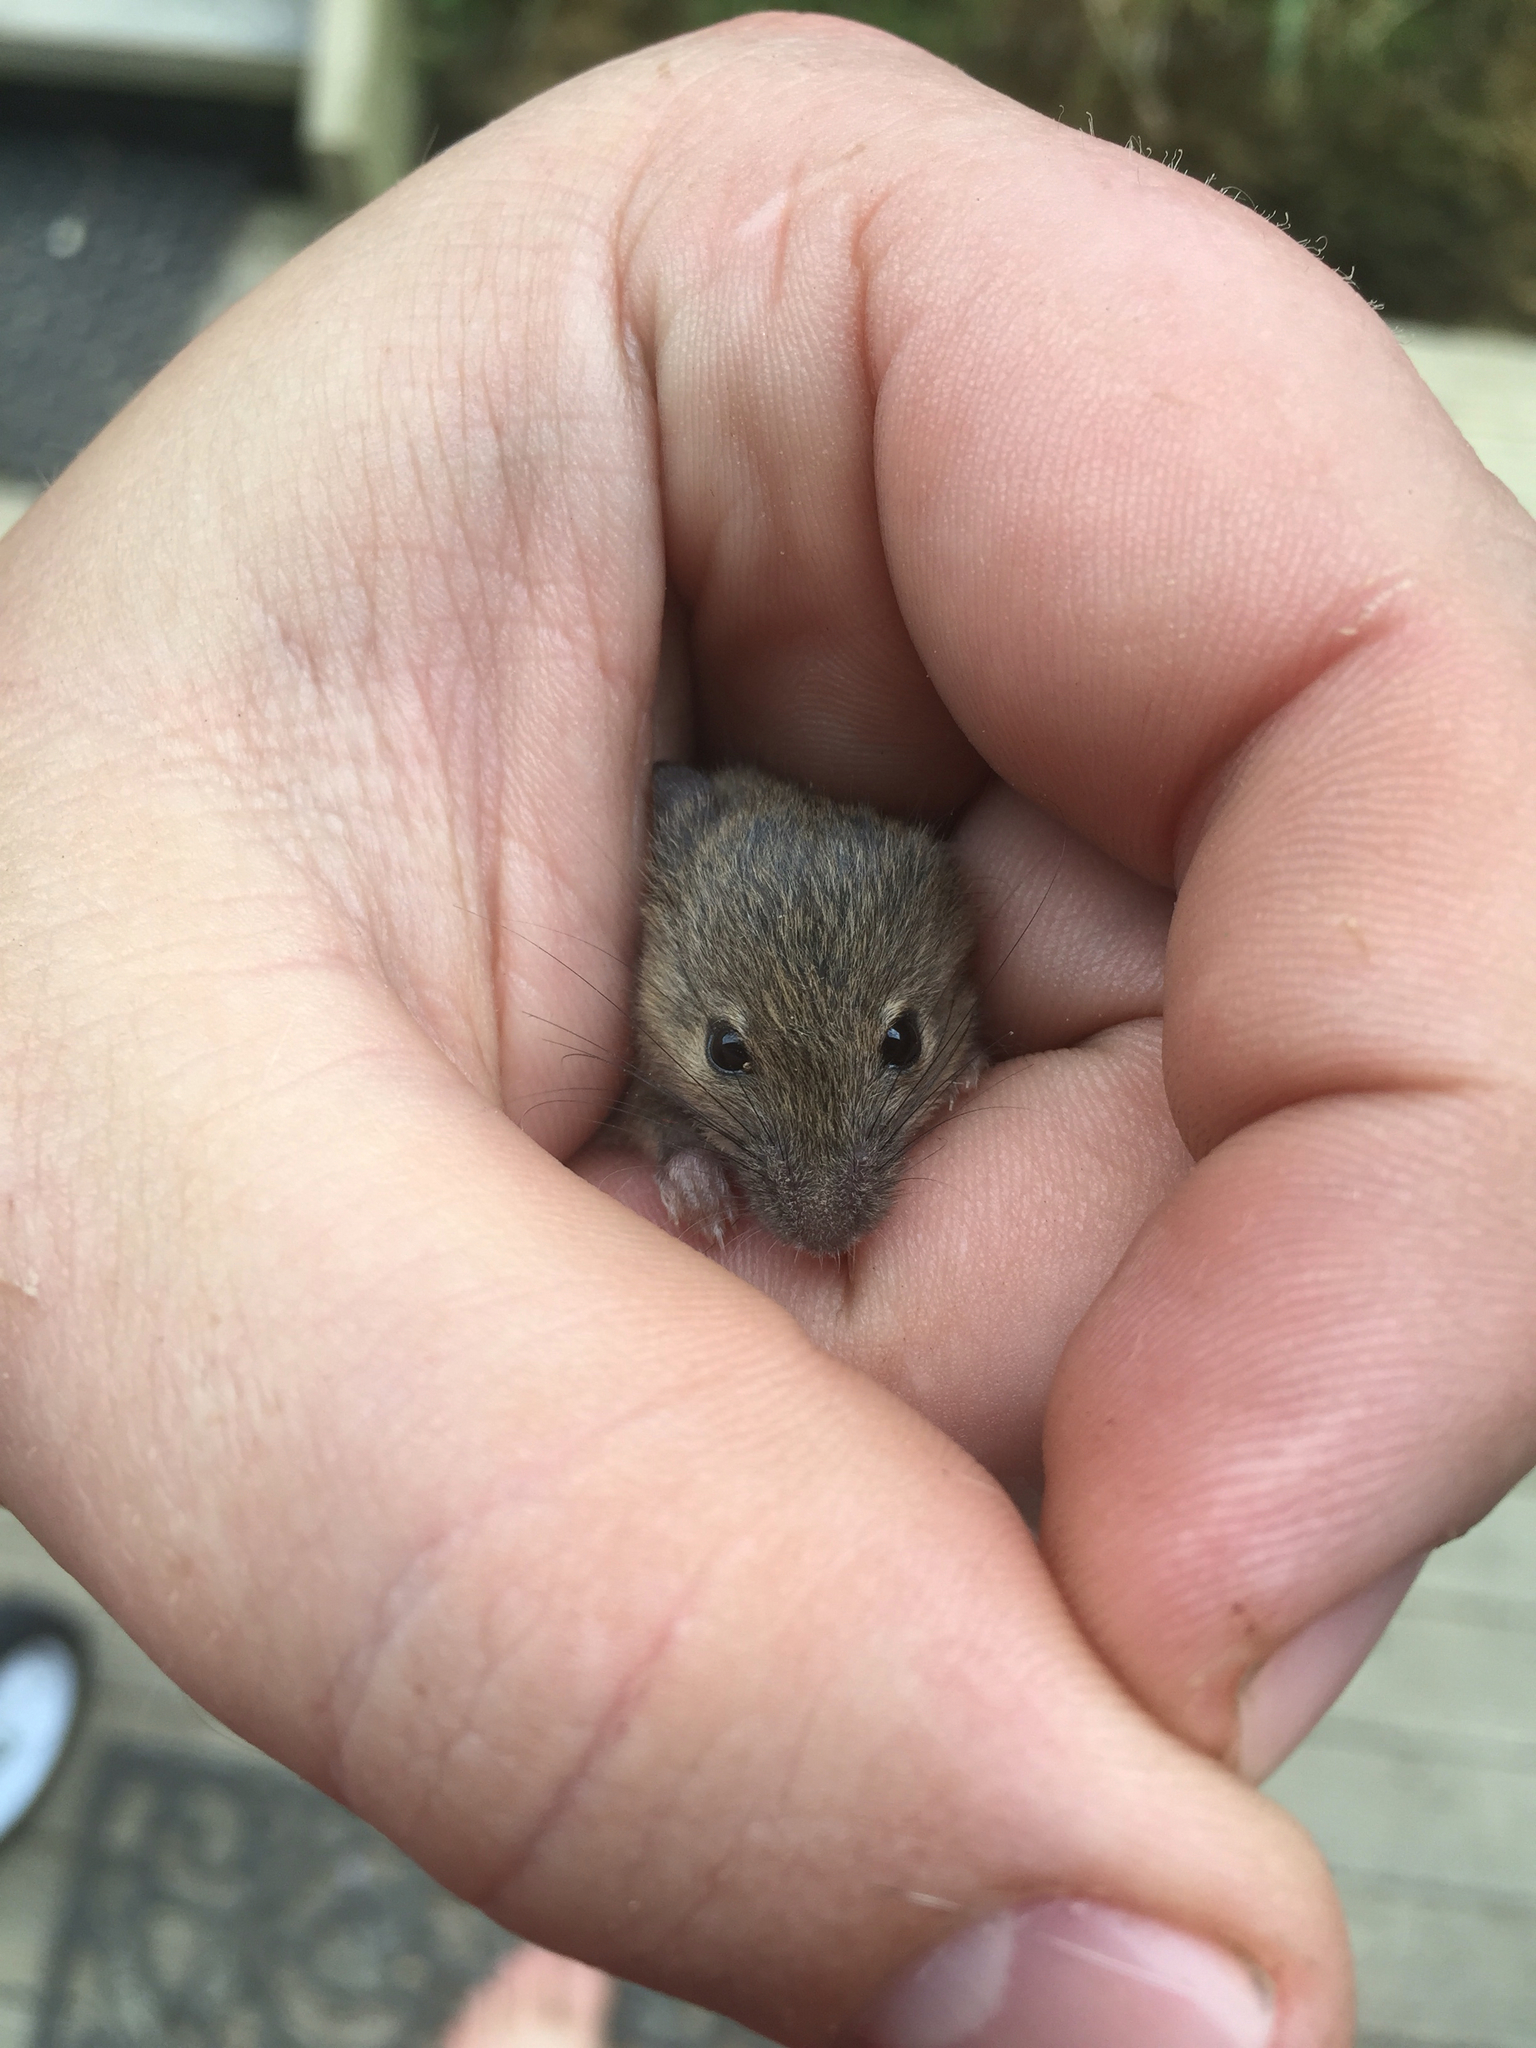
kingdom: Animalia
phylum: Chordata
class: Mammalia
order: Rodentia
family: Muridae
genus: Mus
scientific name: Mus musculus
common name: House mouse
